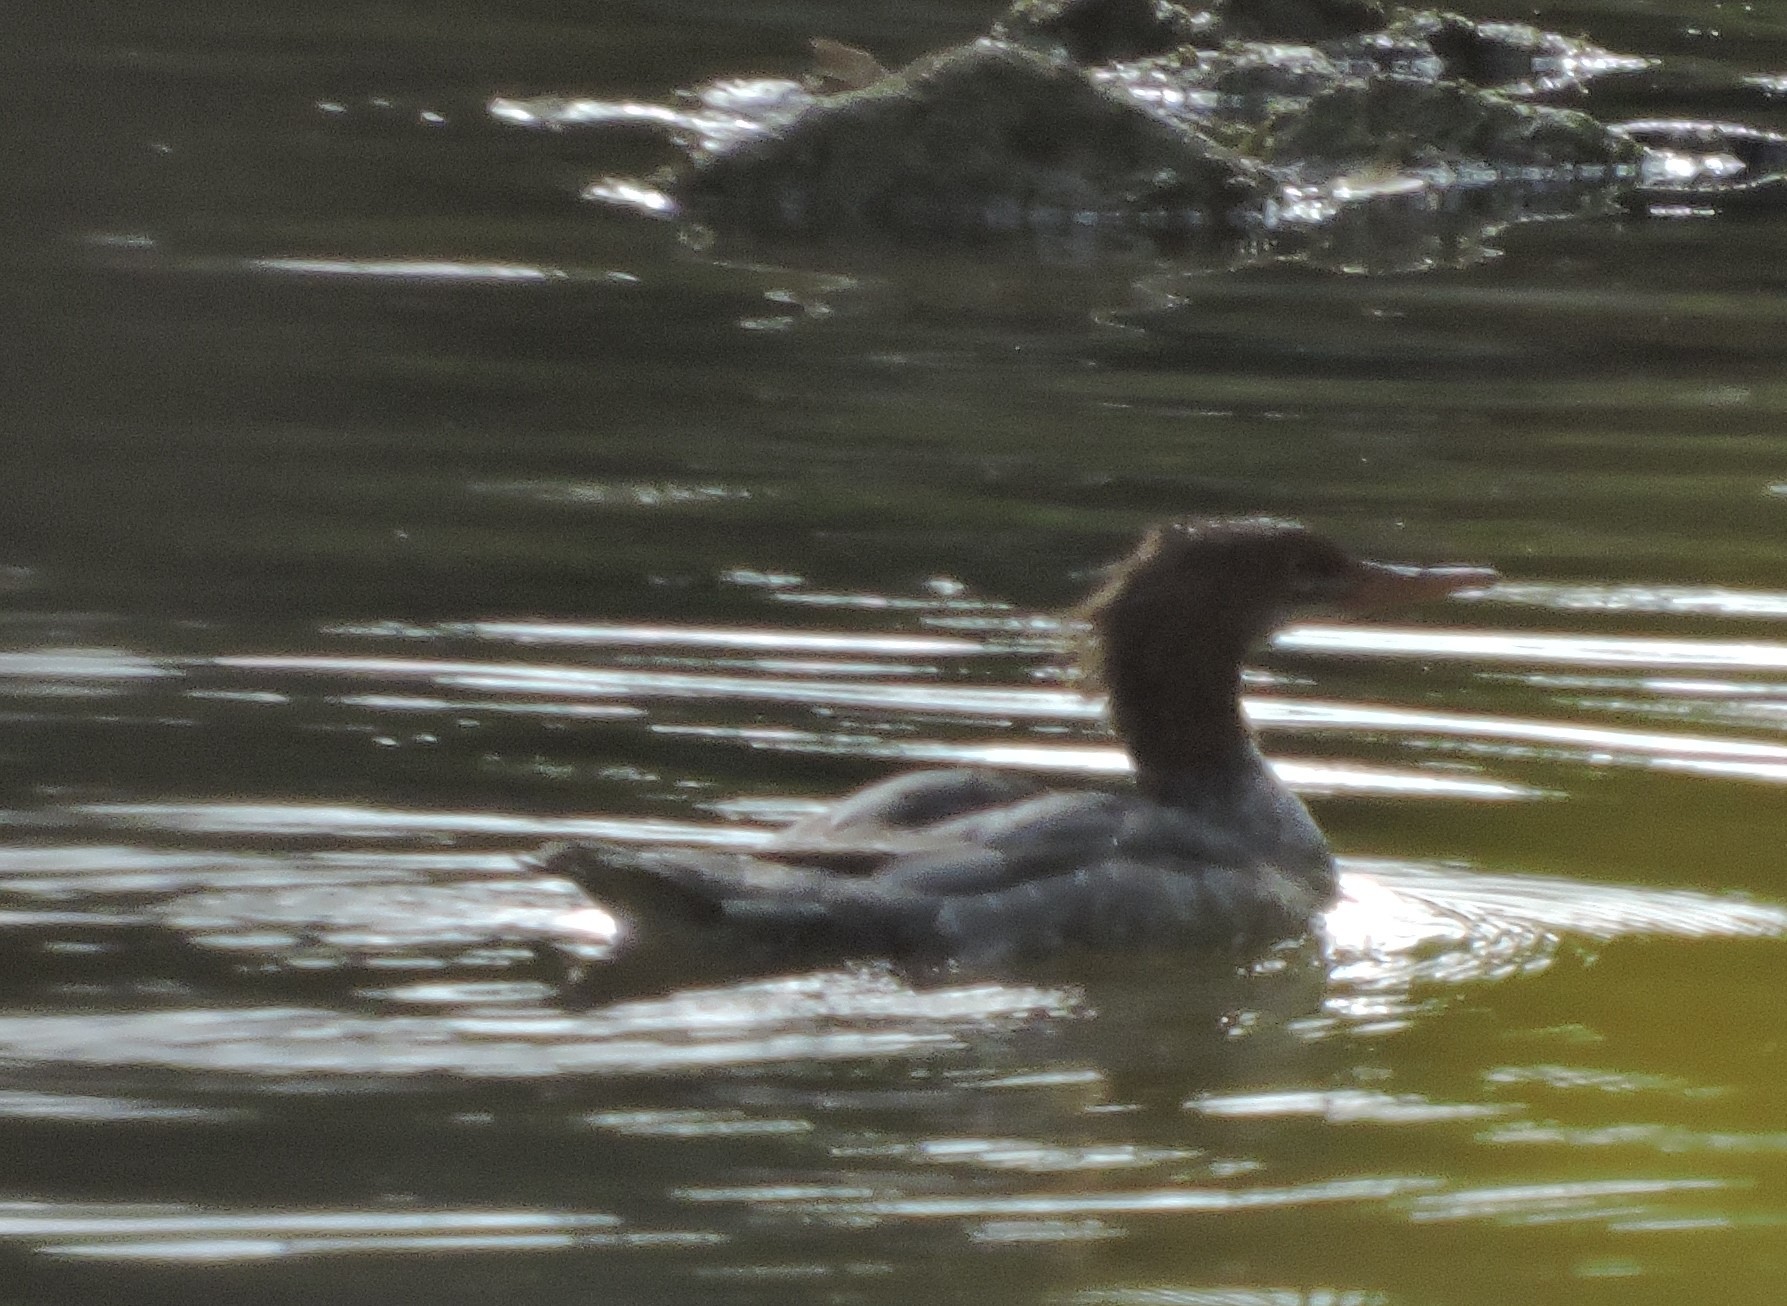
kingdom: Animalia
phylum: Chordata
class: Aves
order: Anseriformes
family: Anatidae
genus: Mergus
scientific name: Mergus merganser
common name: Common merganser
